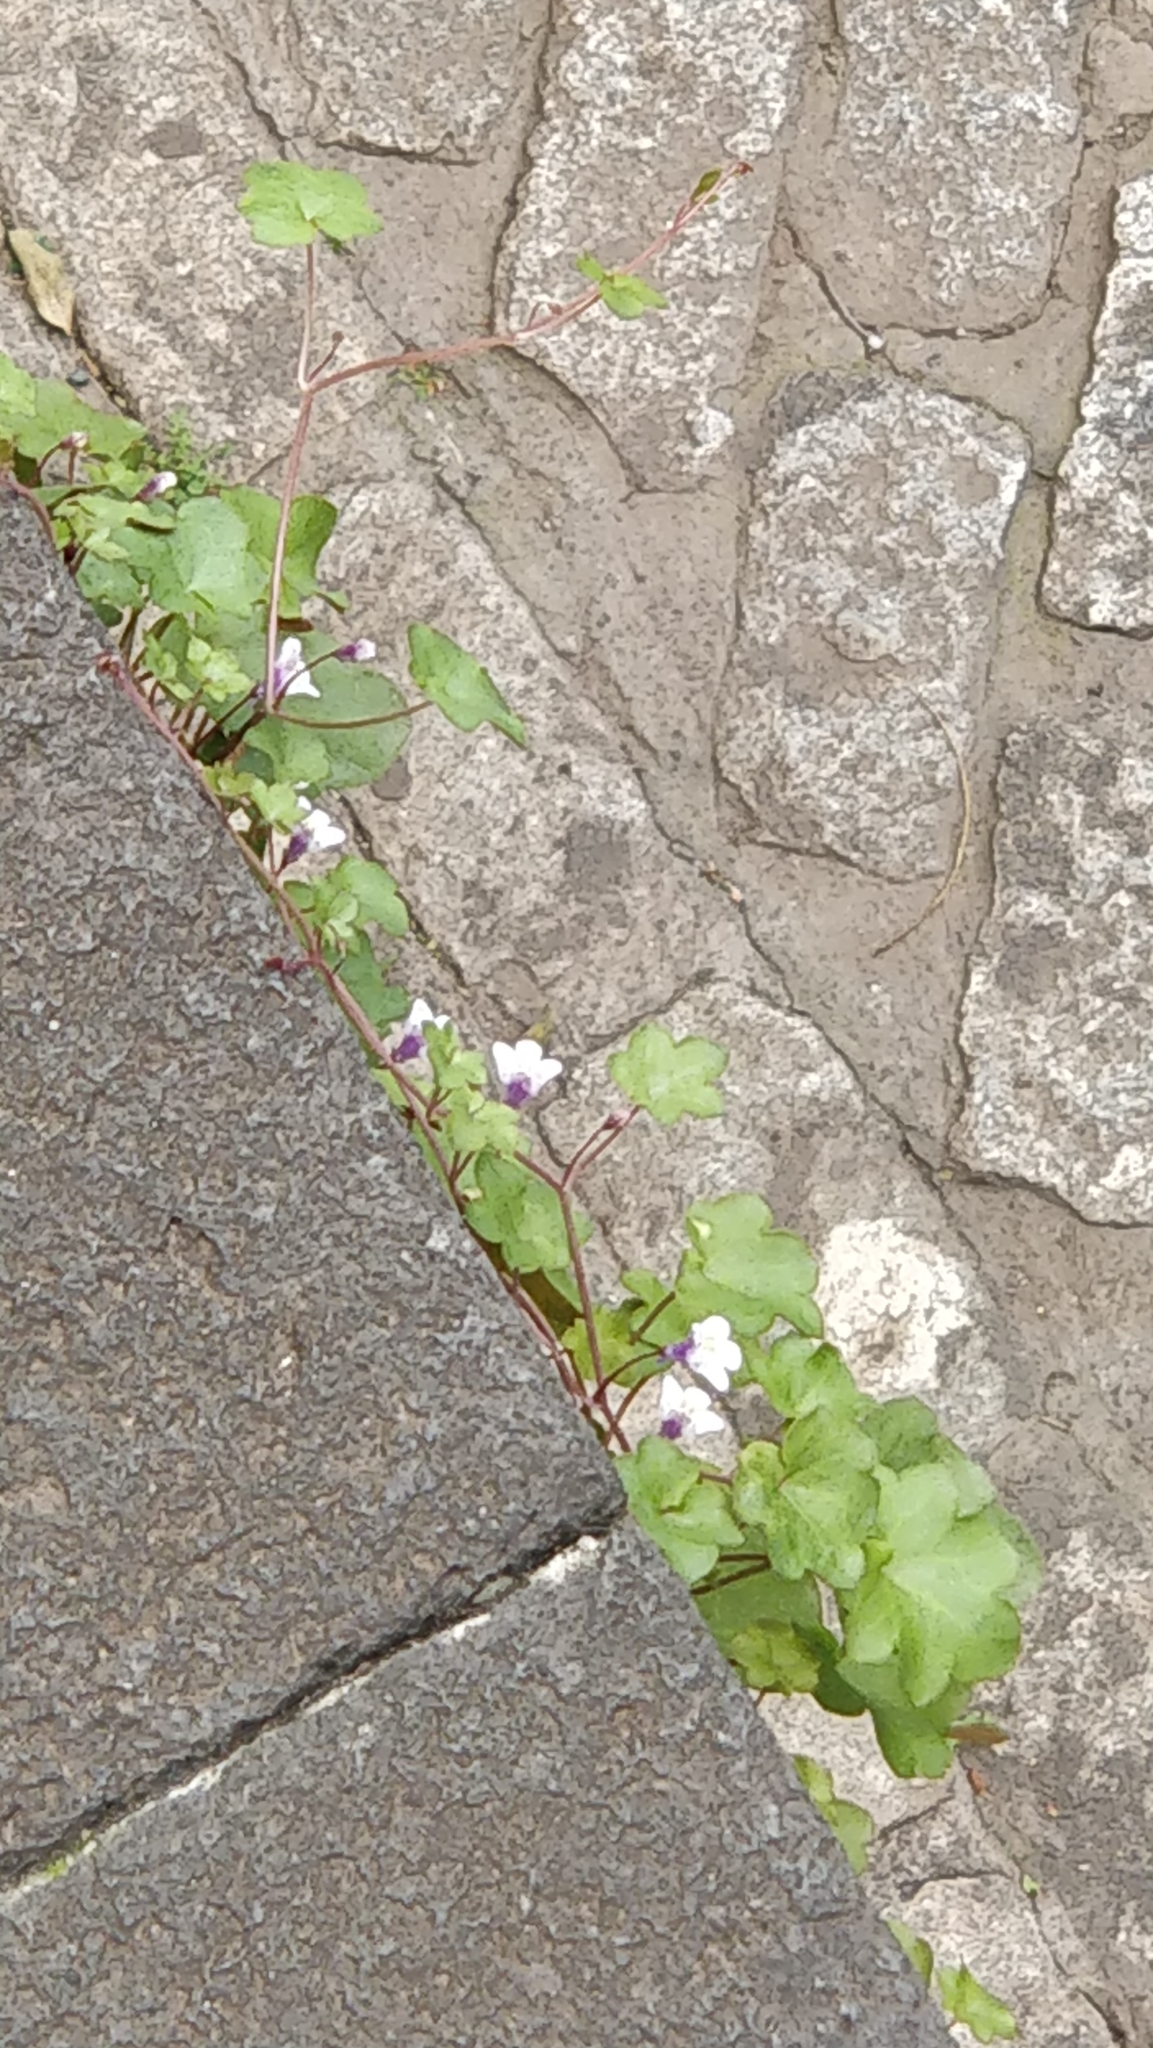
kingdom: Plantae
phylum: Tracheophyta
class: Magnoliopsida
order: Lamiales
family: Plantaginaceae
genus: Cymbalaria
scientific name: Cymbalaria muralis
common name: Ivy-leaved toadflax
